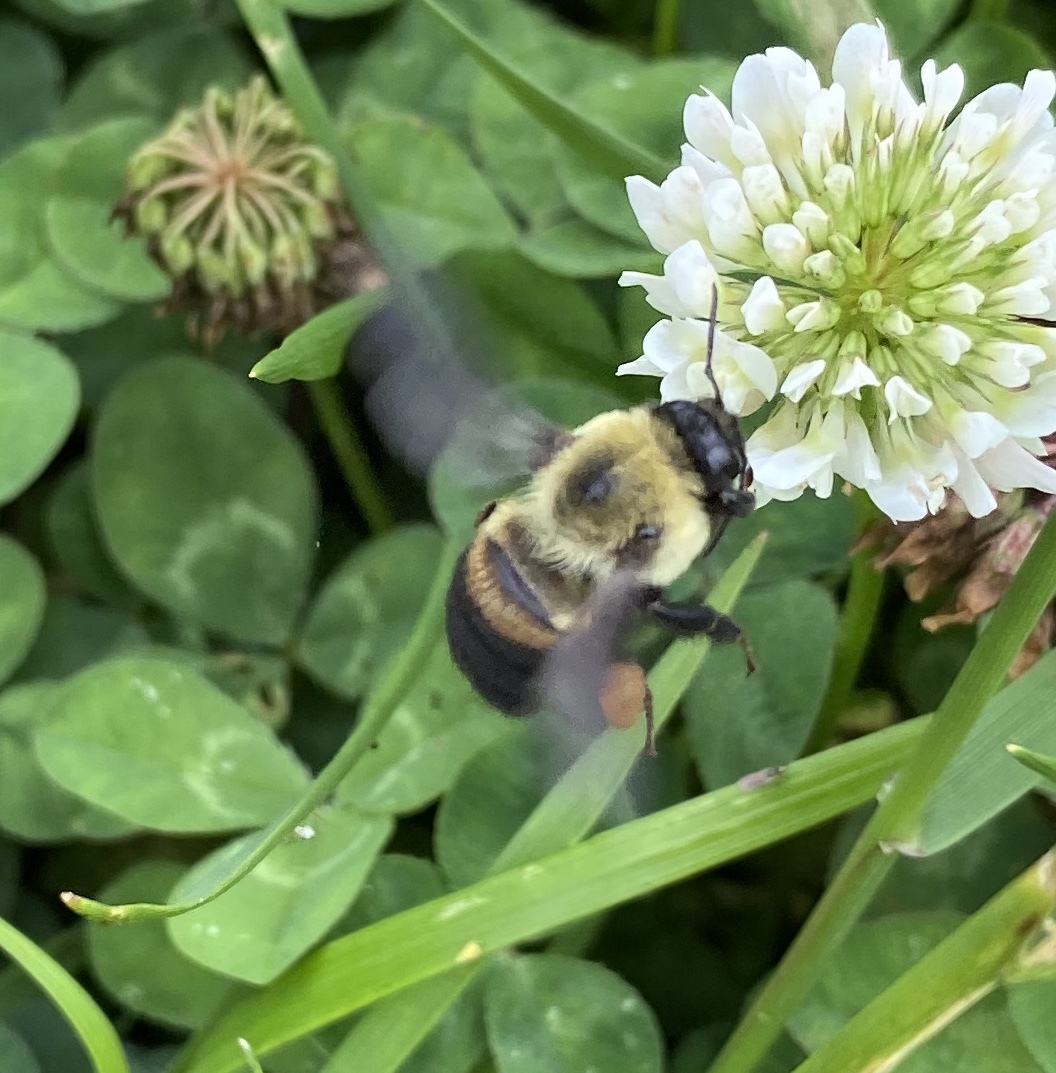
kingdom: Animalia
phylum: Arthropoda
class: Insecta
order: Hymenoptera
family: Apidae
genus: Bombus
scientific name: Bombus griseocollis
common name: Brown-belted bumble bee
